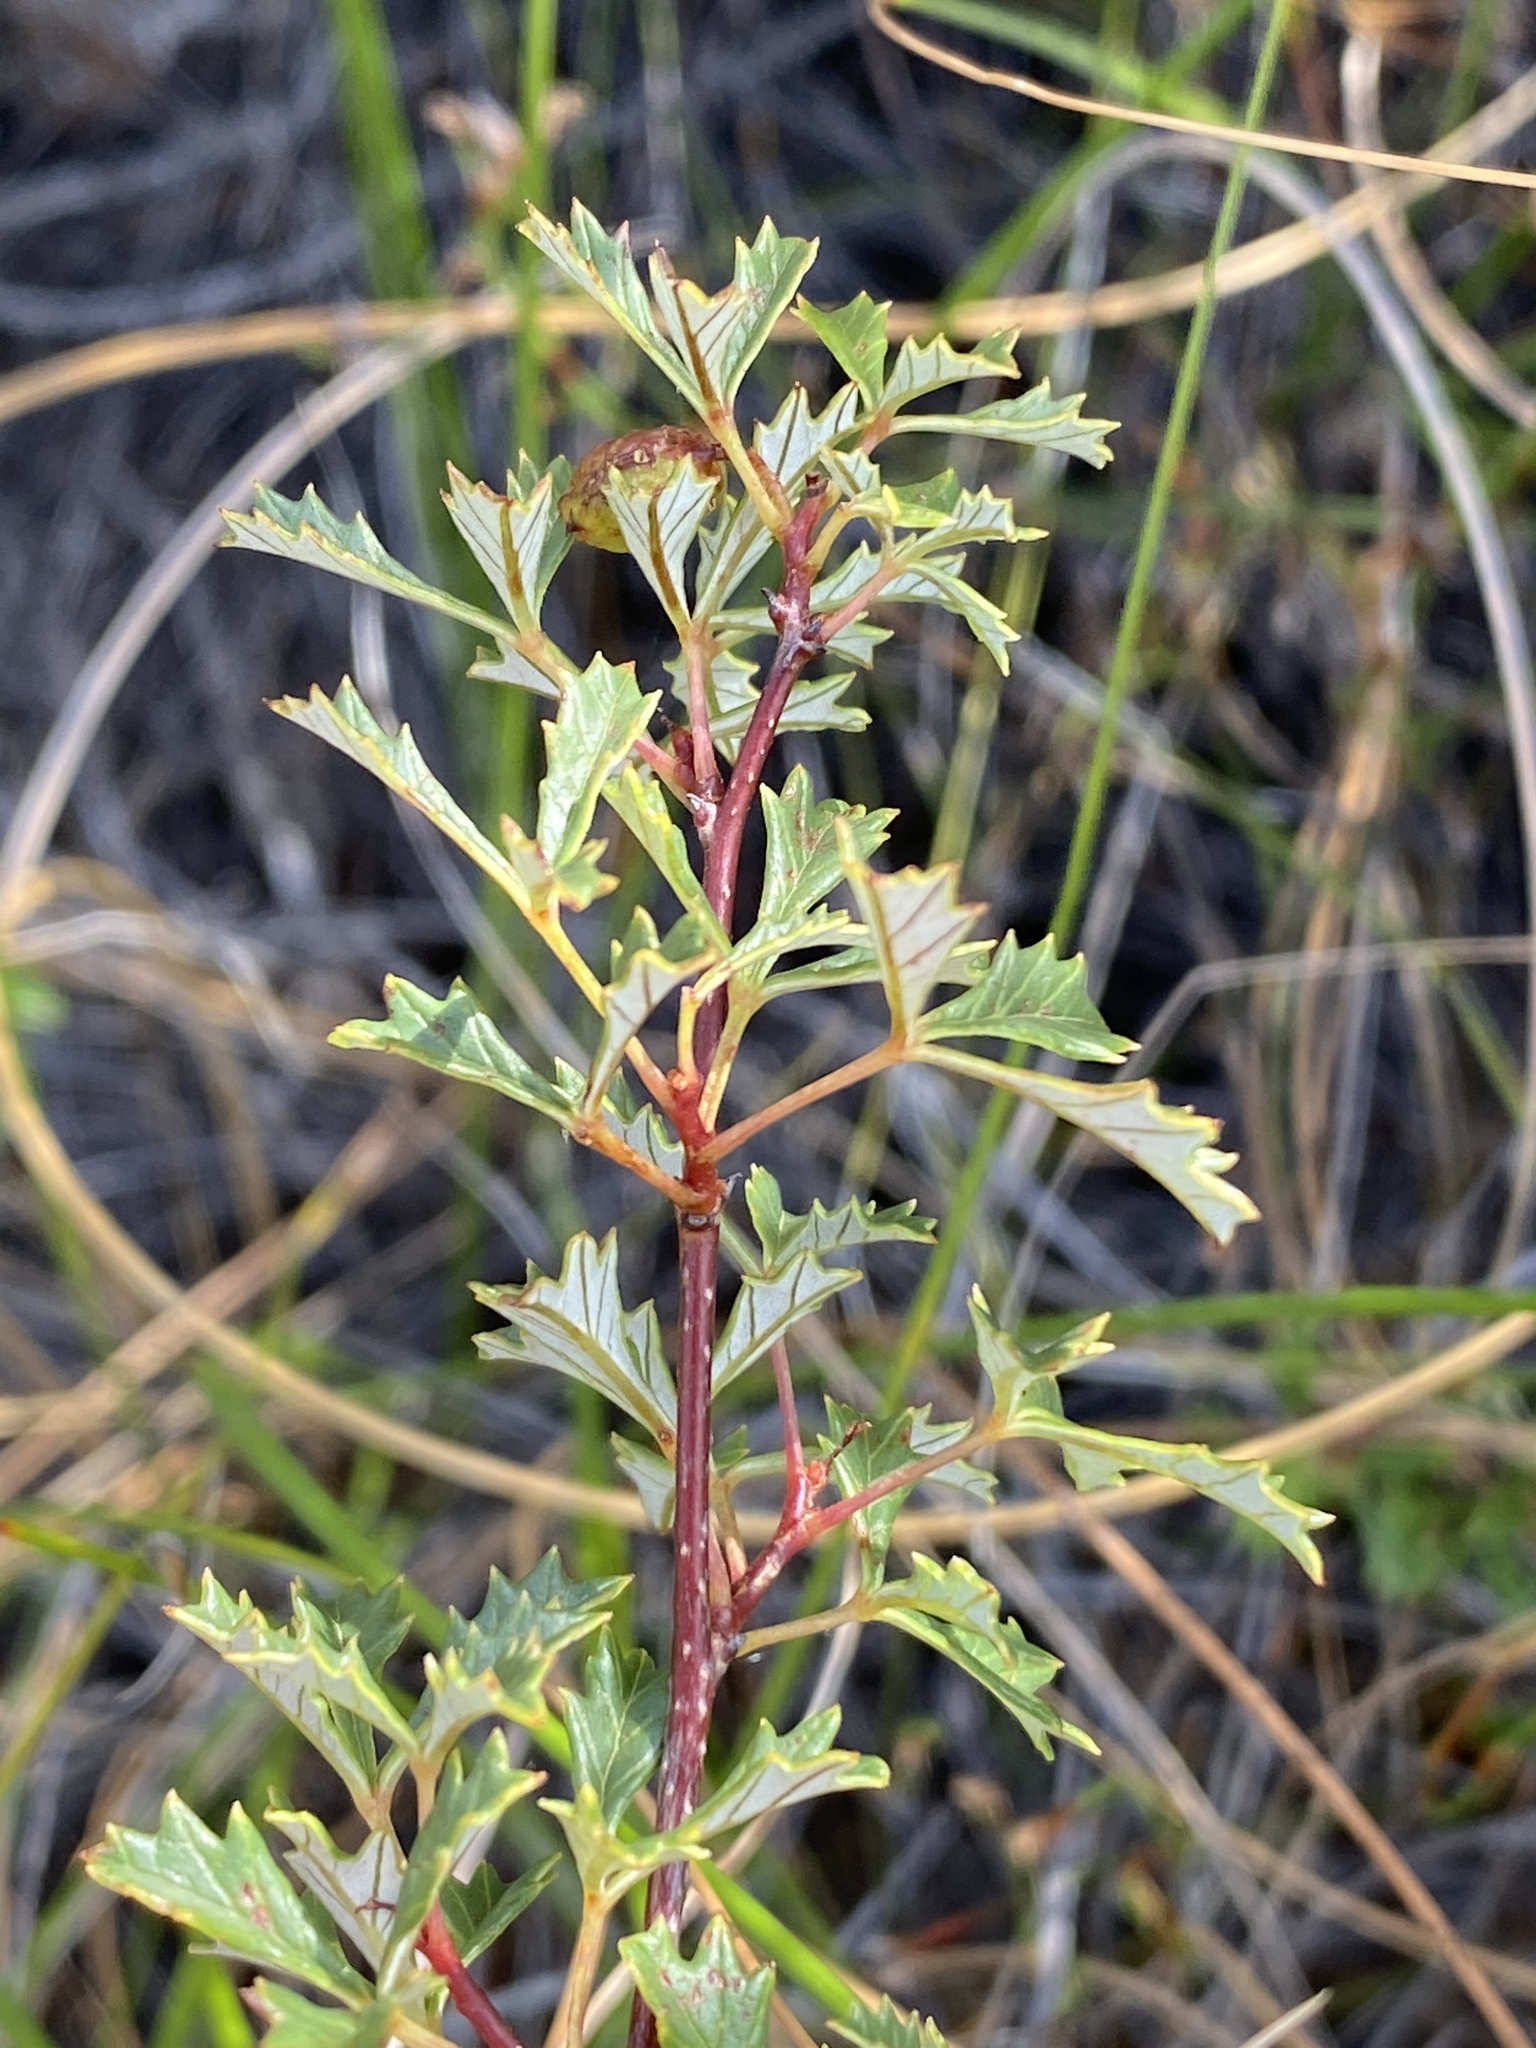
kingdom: Plantae
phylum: Tracheophyta
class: Magnoliopsida
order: Sapindales
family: Anacardiaceae
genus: Searsia
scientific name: Searsia dissecta
